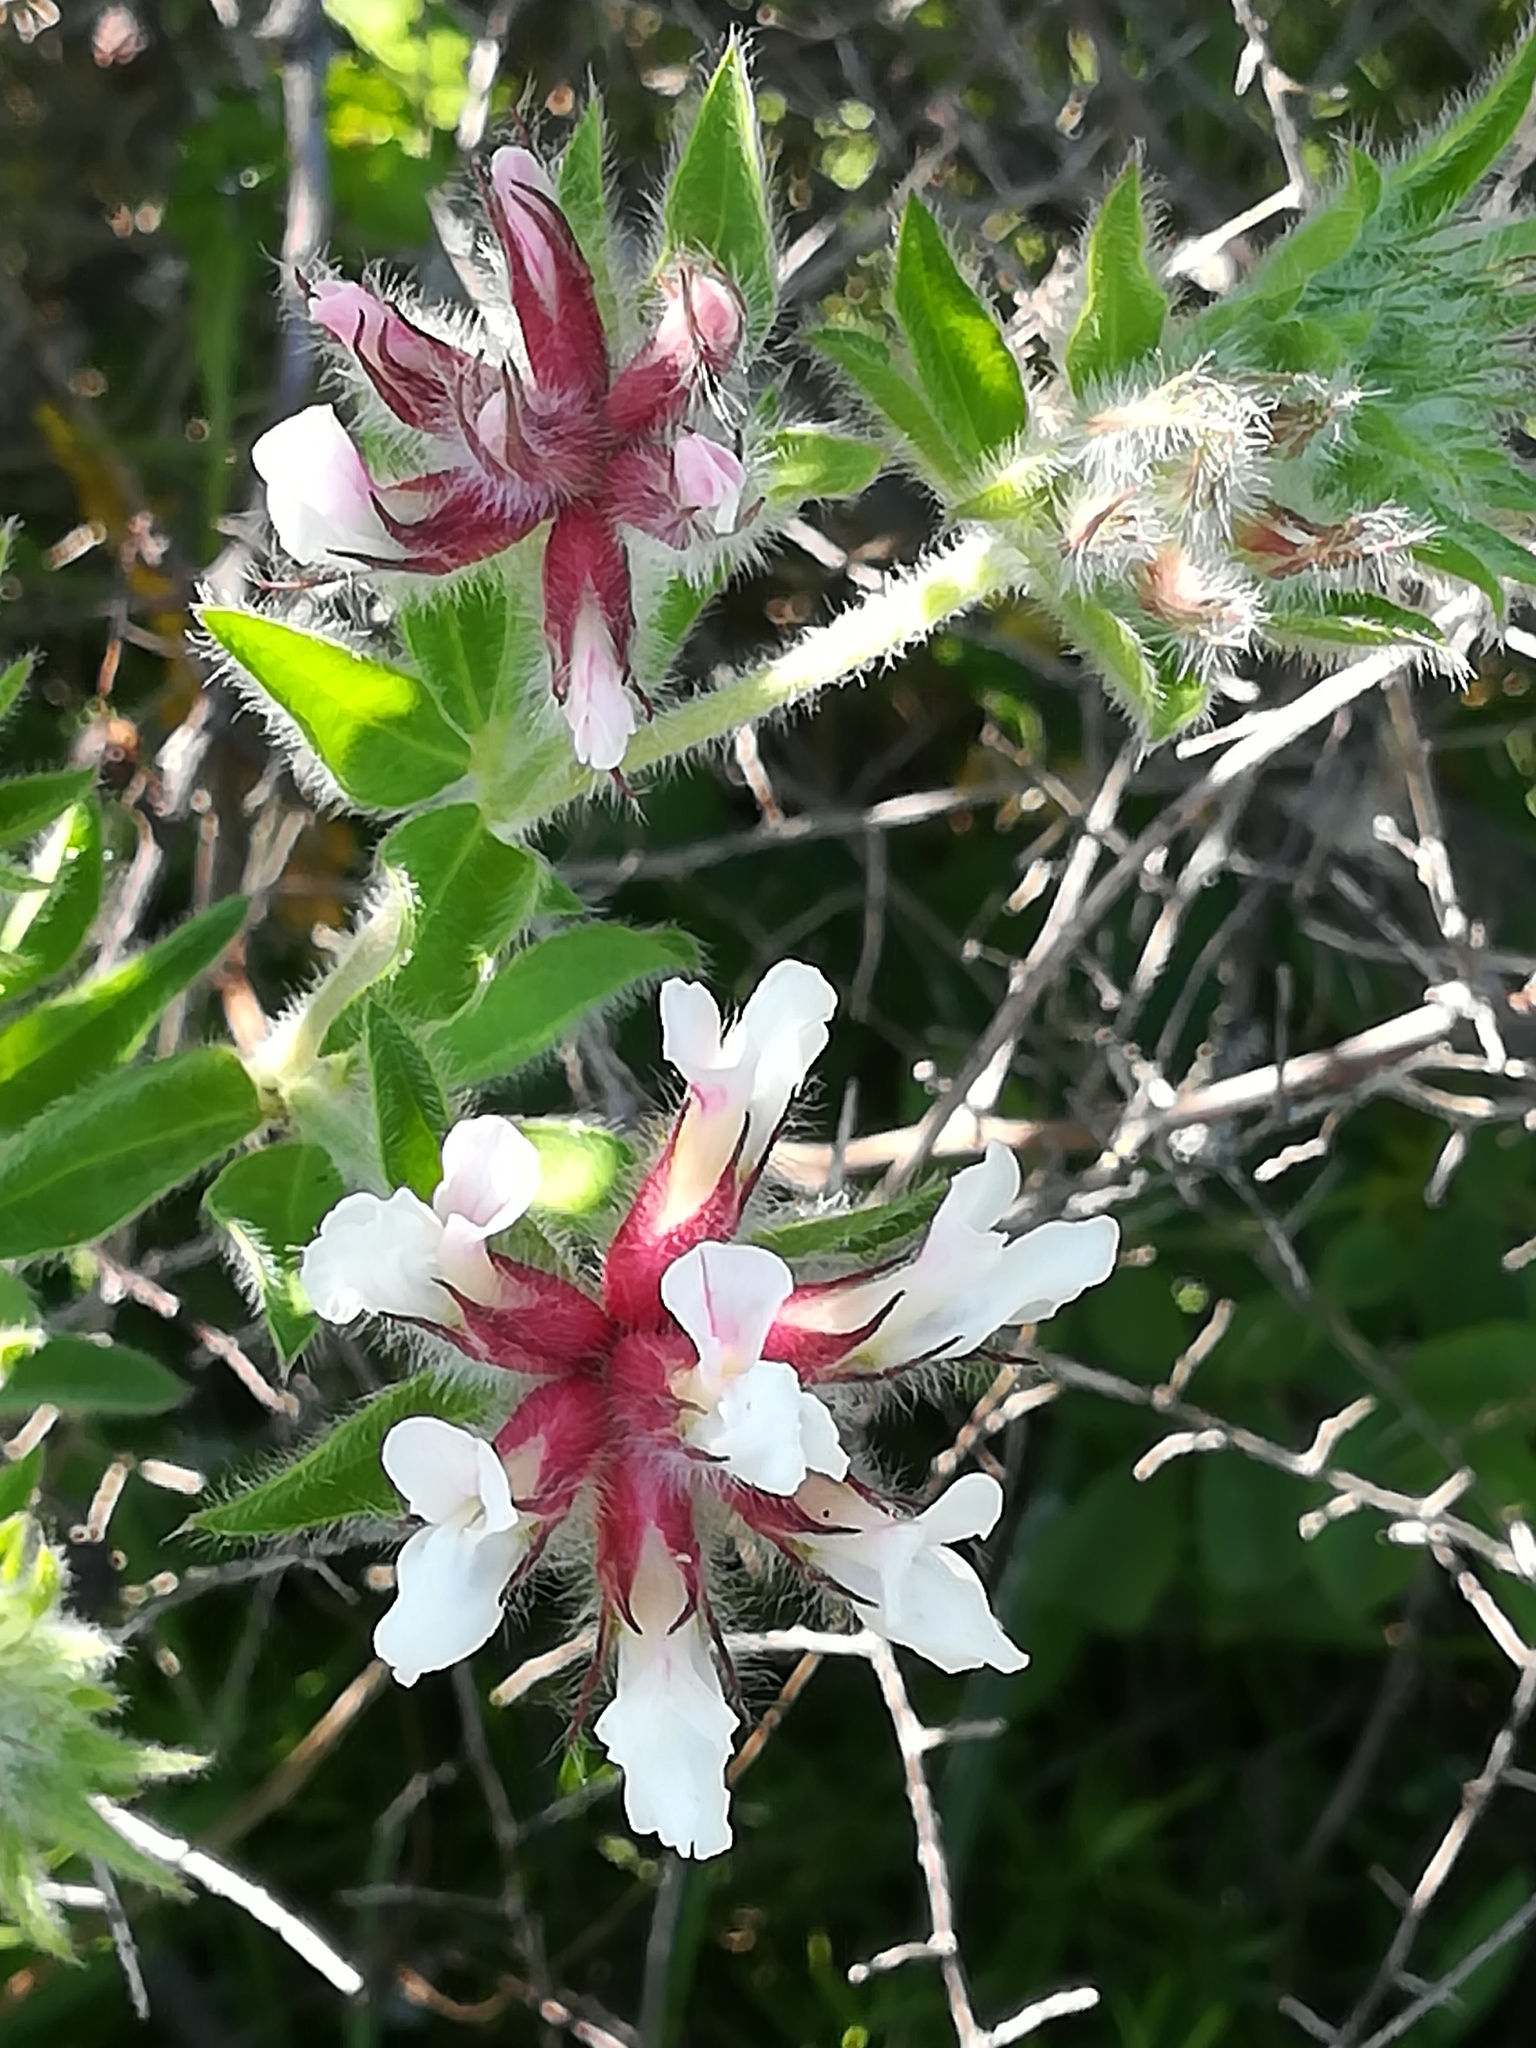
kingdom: Plantae
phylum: Tracheophyta
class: Magnoliopsida
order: Fabales
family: Fabaceae
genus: Lotus
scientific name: Lotus hirsutus
